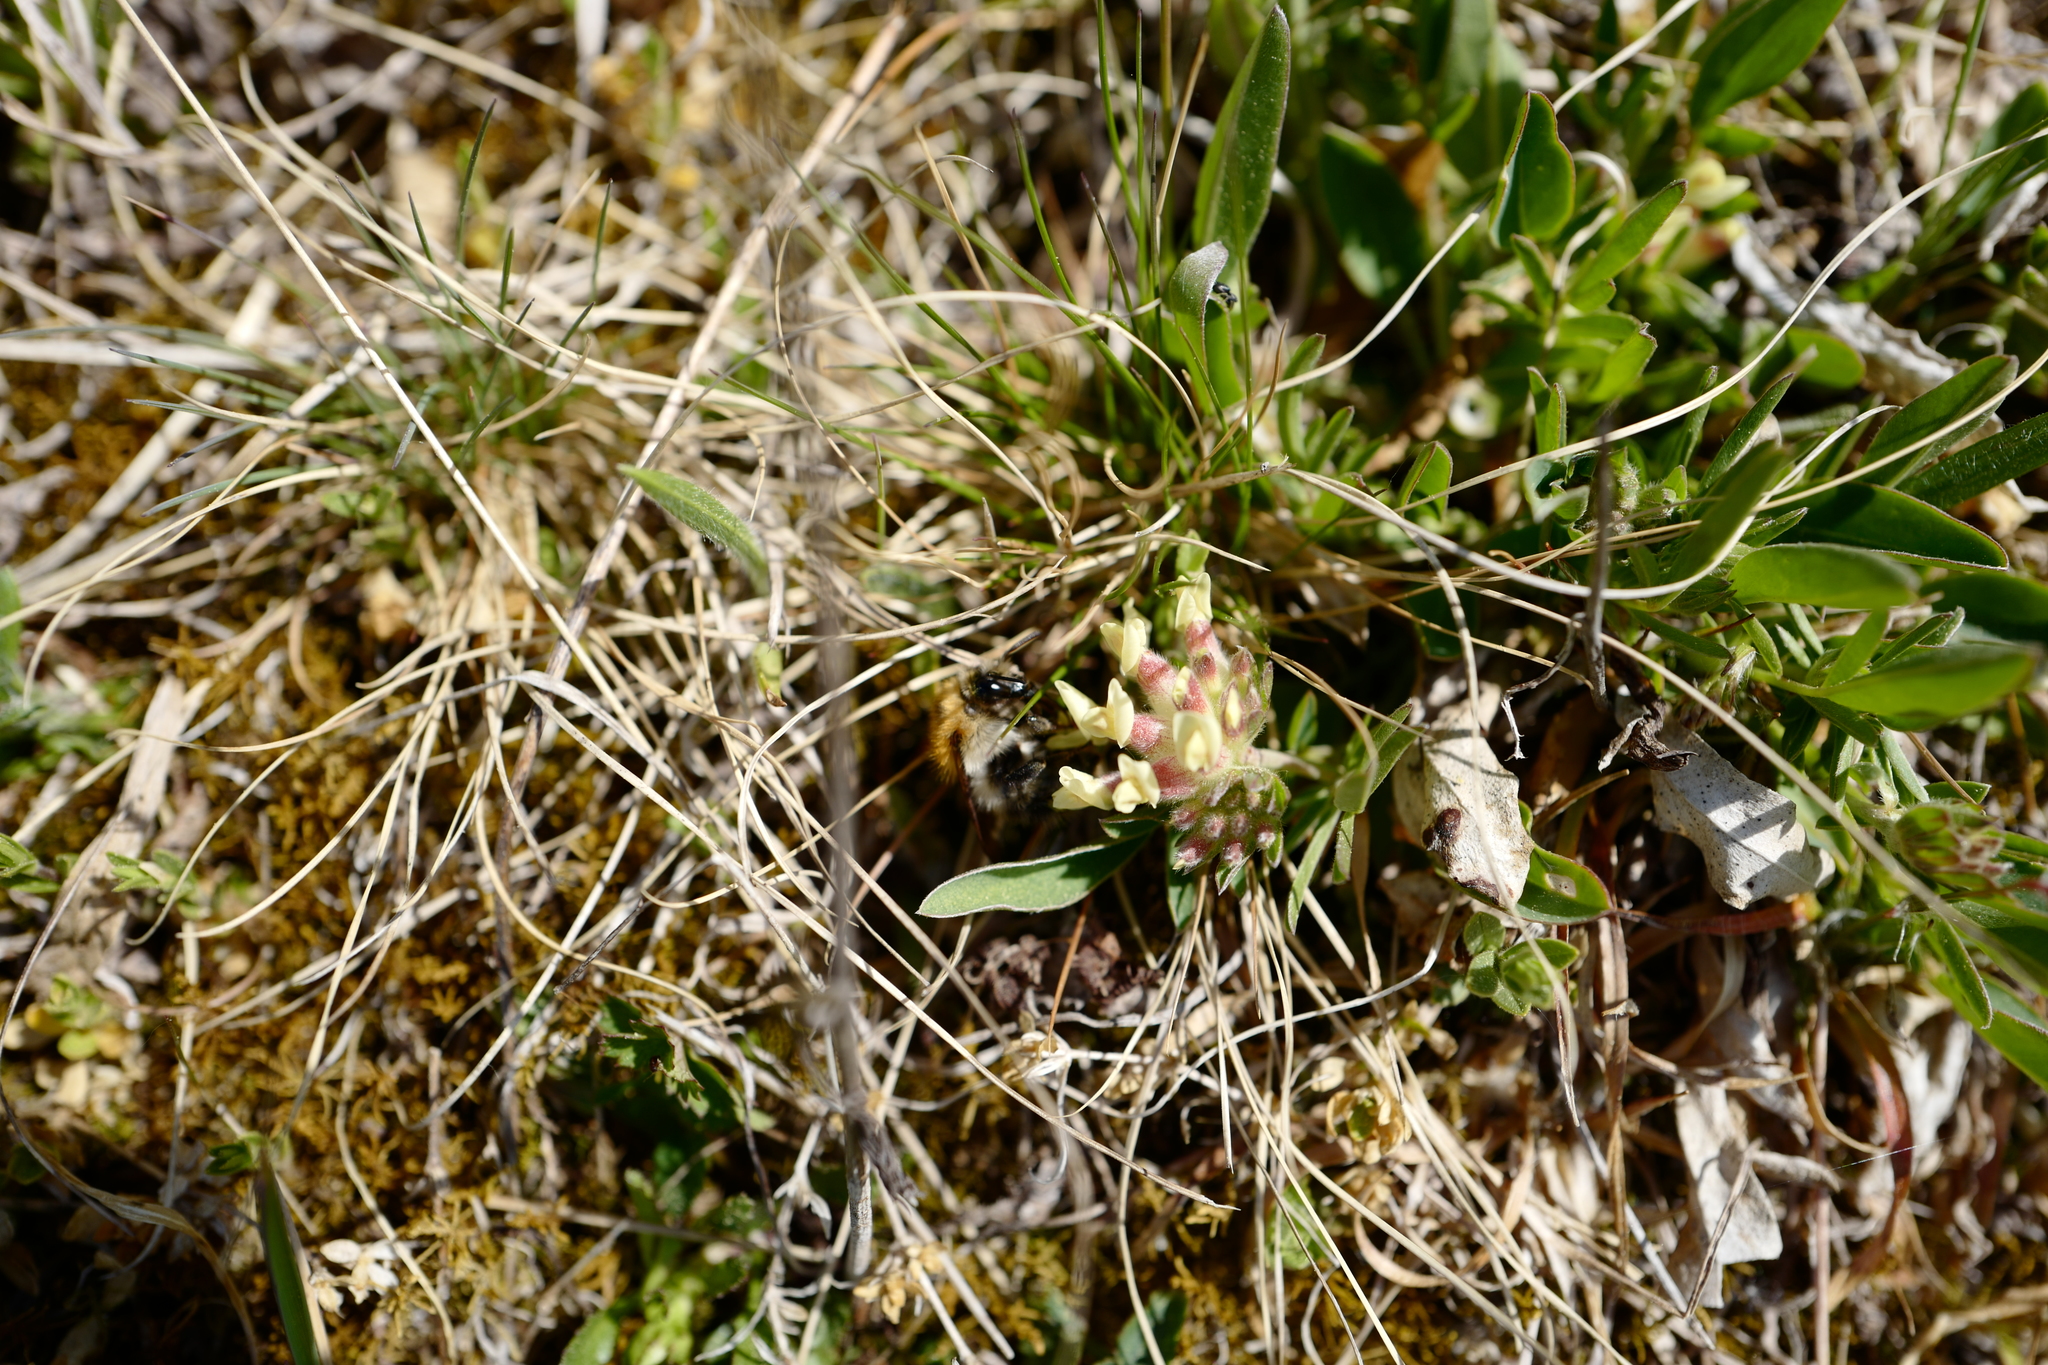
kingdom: Plantae
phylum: Tracheophyta
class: Magnoliopsida
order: Fabales
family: Fabaceae
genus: Anthyllis
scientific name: Anthyllis vulneraria
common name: Kidney vetch
